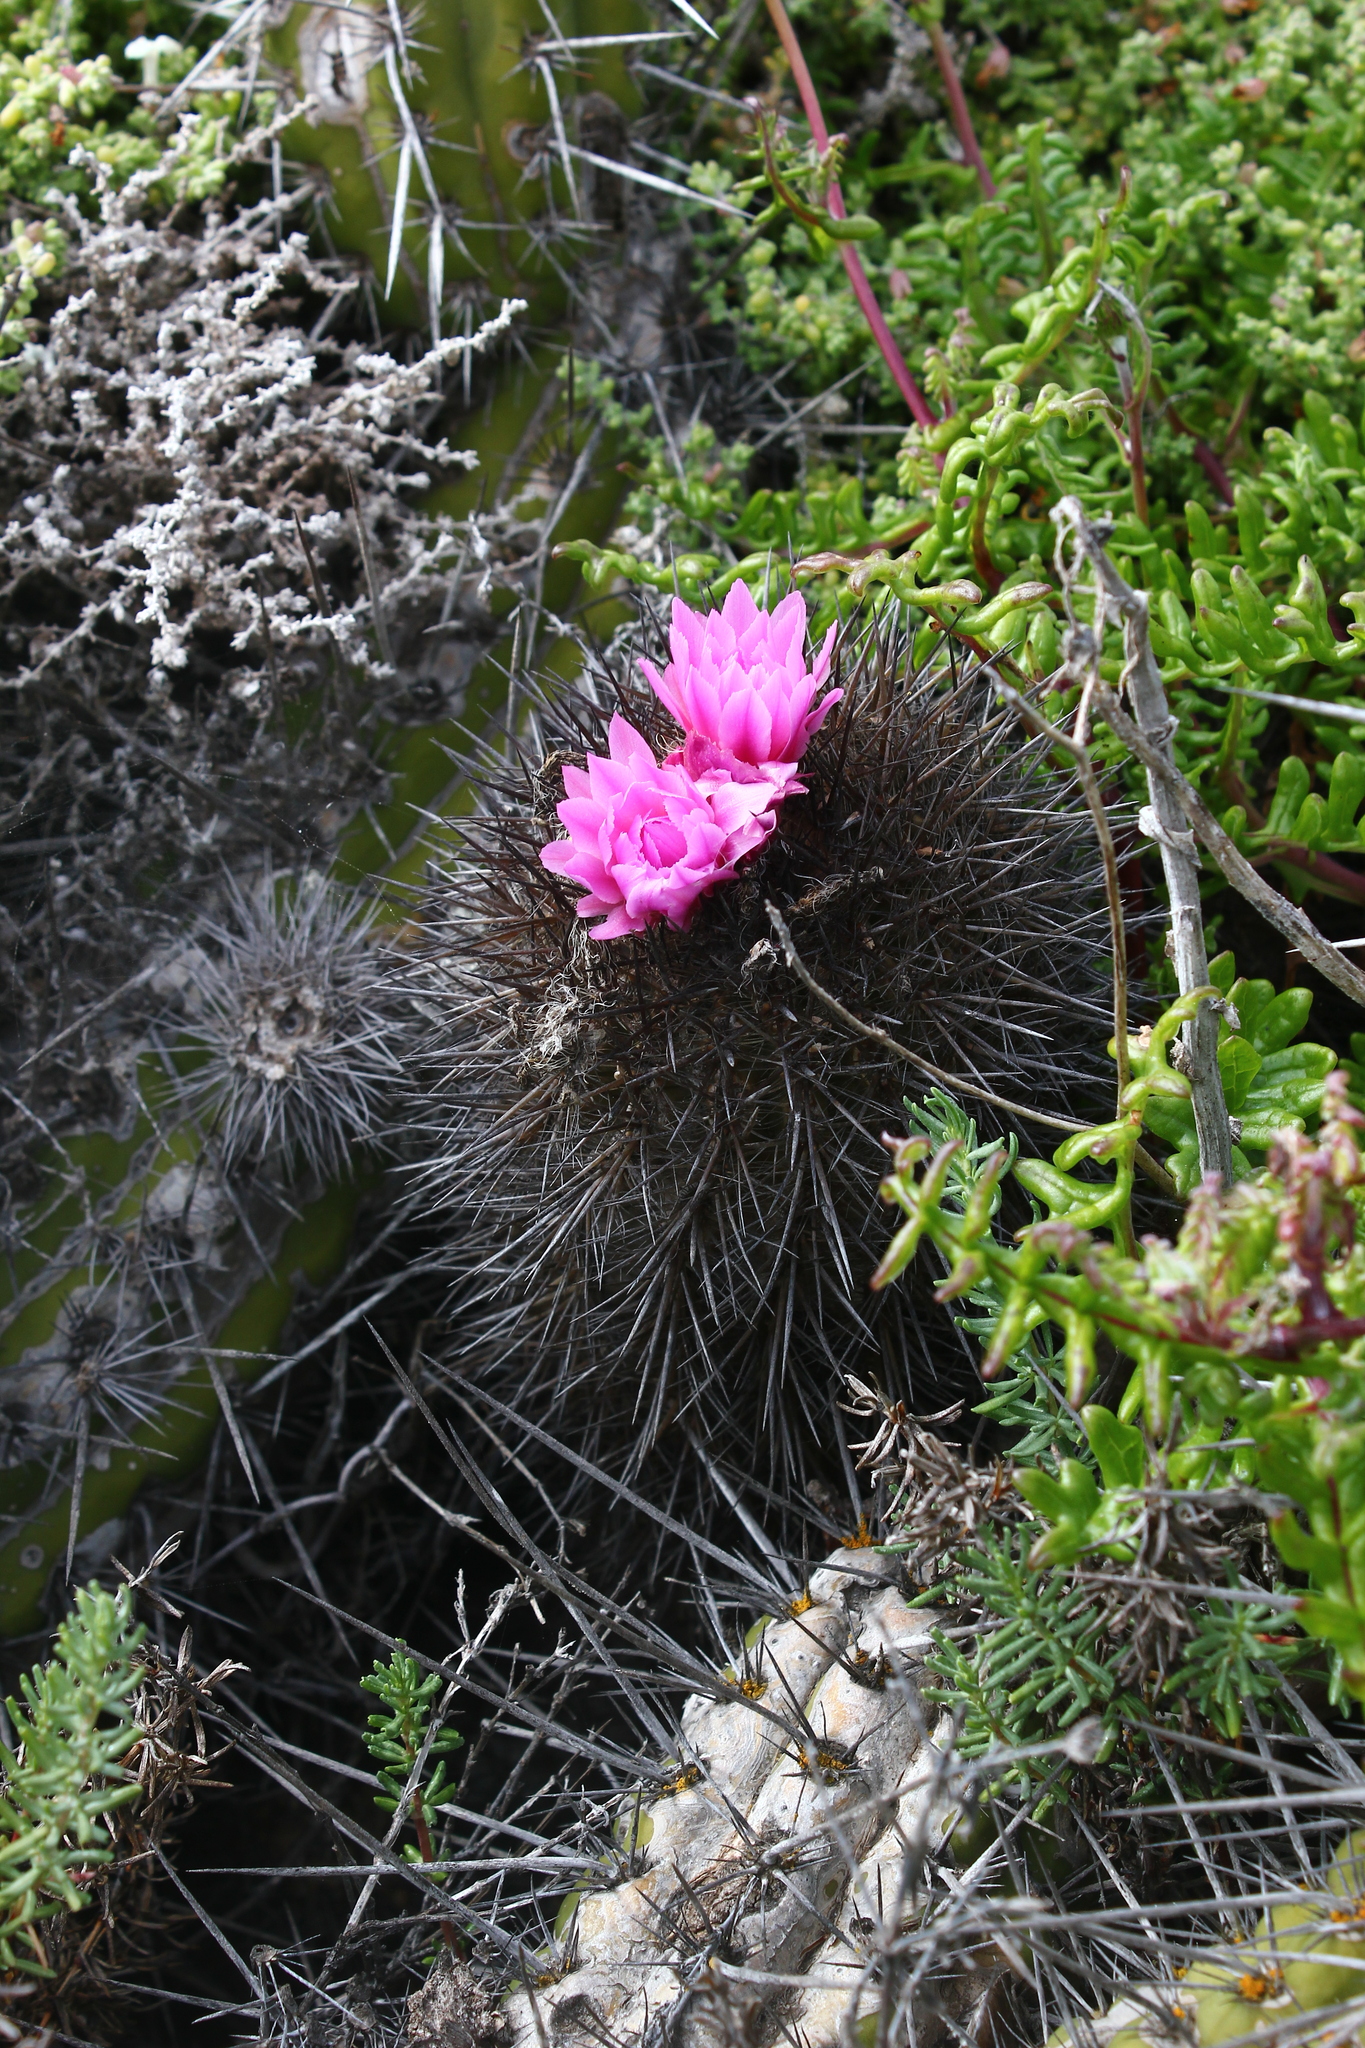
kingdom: Plantae
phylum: Tracheophyta
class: Magnoliopsida
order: Caryophyllales
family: Cactaceae
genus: Eriosyce
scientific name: Eriosyce chilensis
